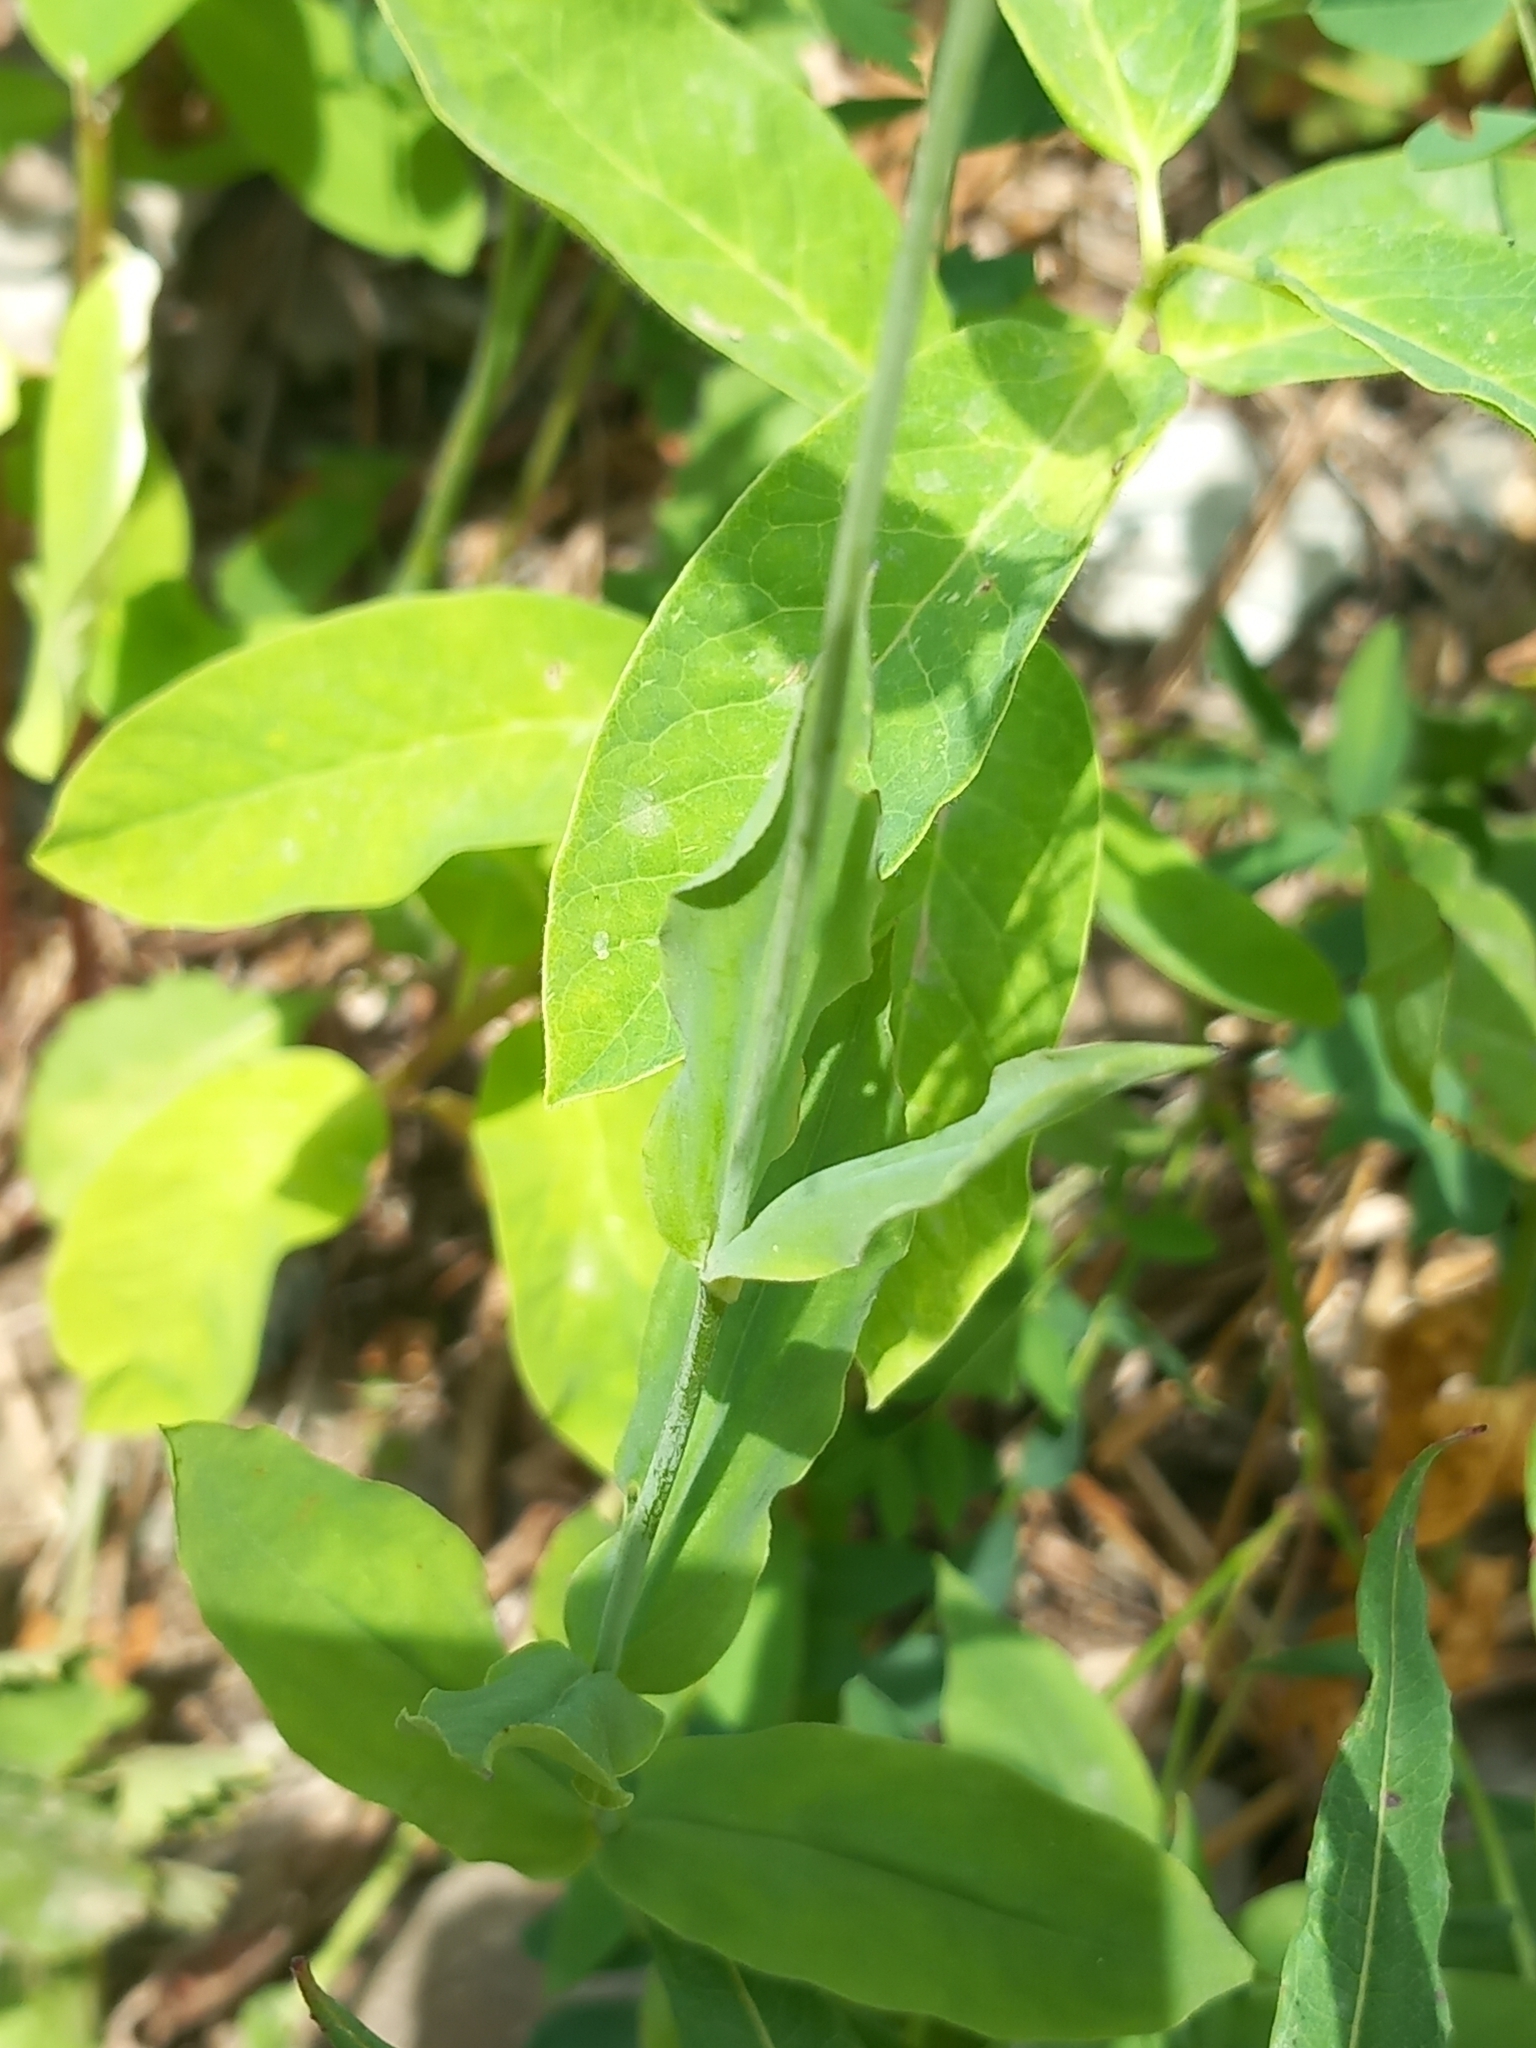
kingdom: Plantae
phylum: Tracheophyta
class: Magnoliopsida
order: Caryophyllales
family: Caryophyllaceae
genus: Silene
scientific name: Silene vulgaris
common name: Bladder campion
